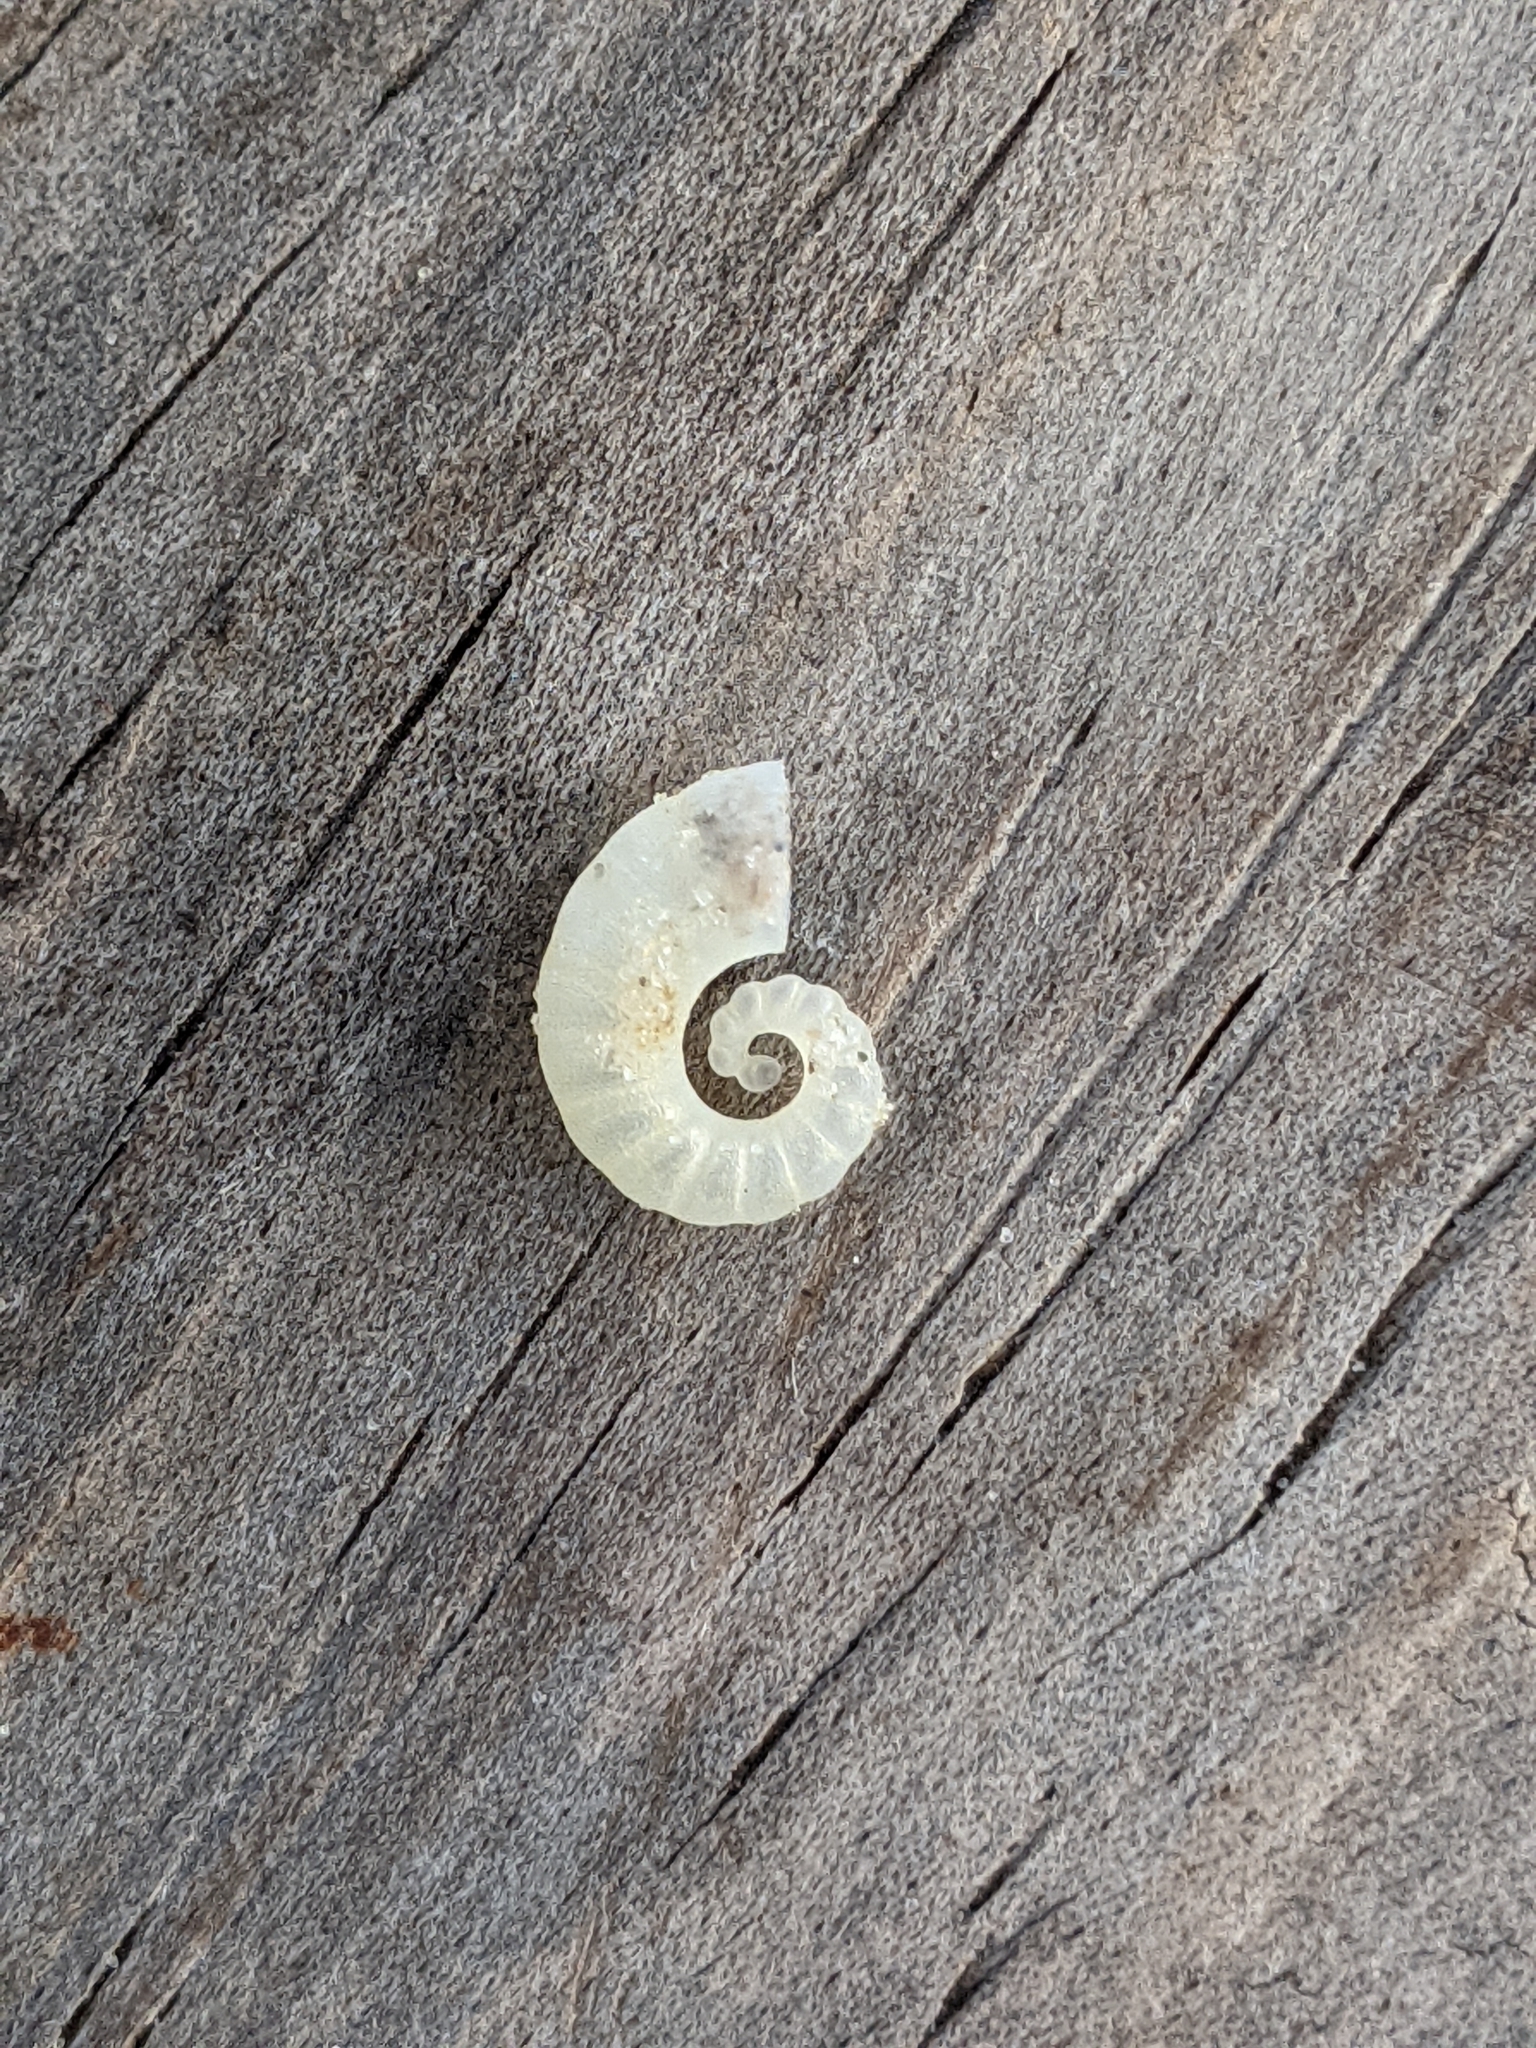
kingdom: Animalia
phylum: Mollusca
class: Cephalopoda
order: Spirulida
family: Spirulidae
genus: Spirula
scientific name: Spirula spirula
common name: Ram's horn squid
